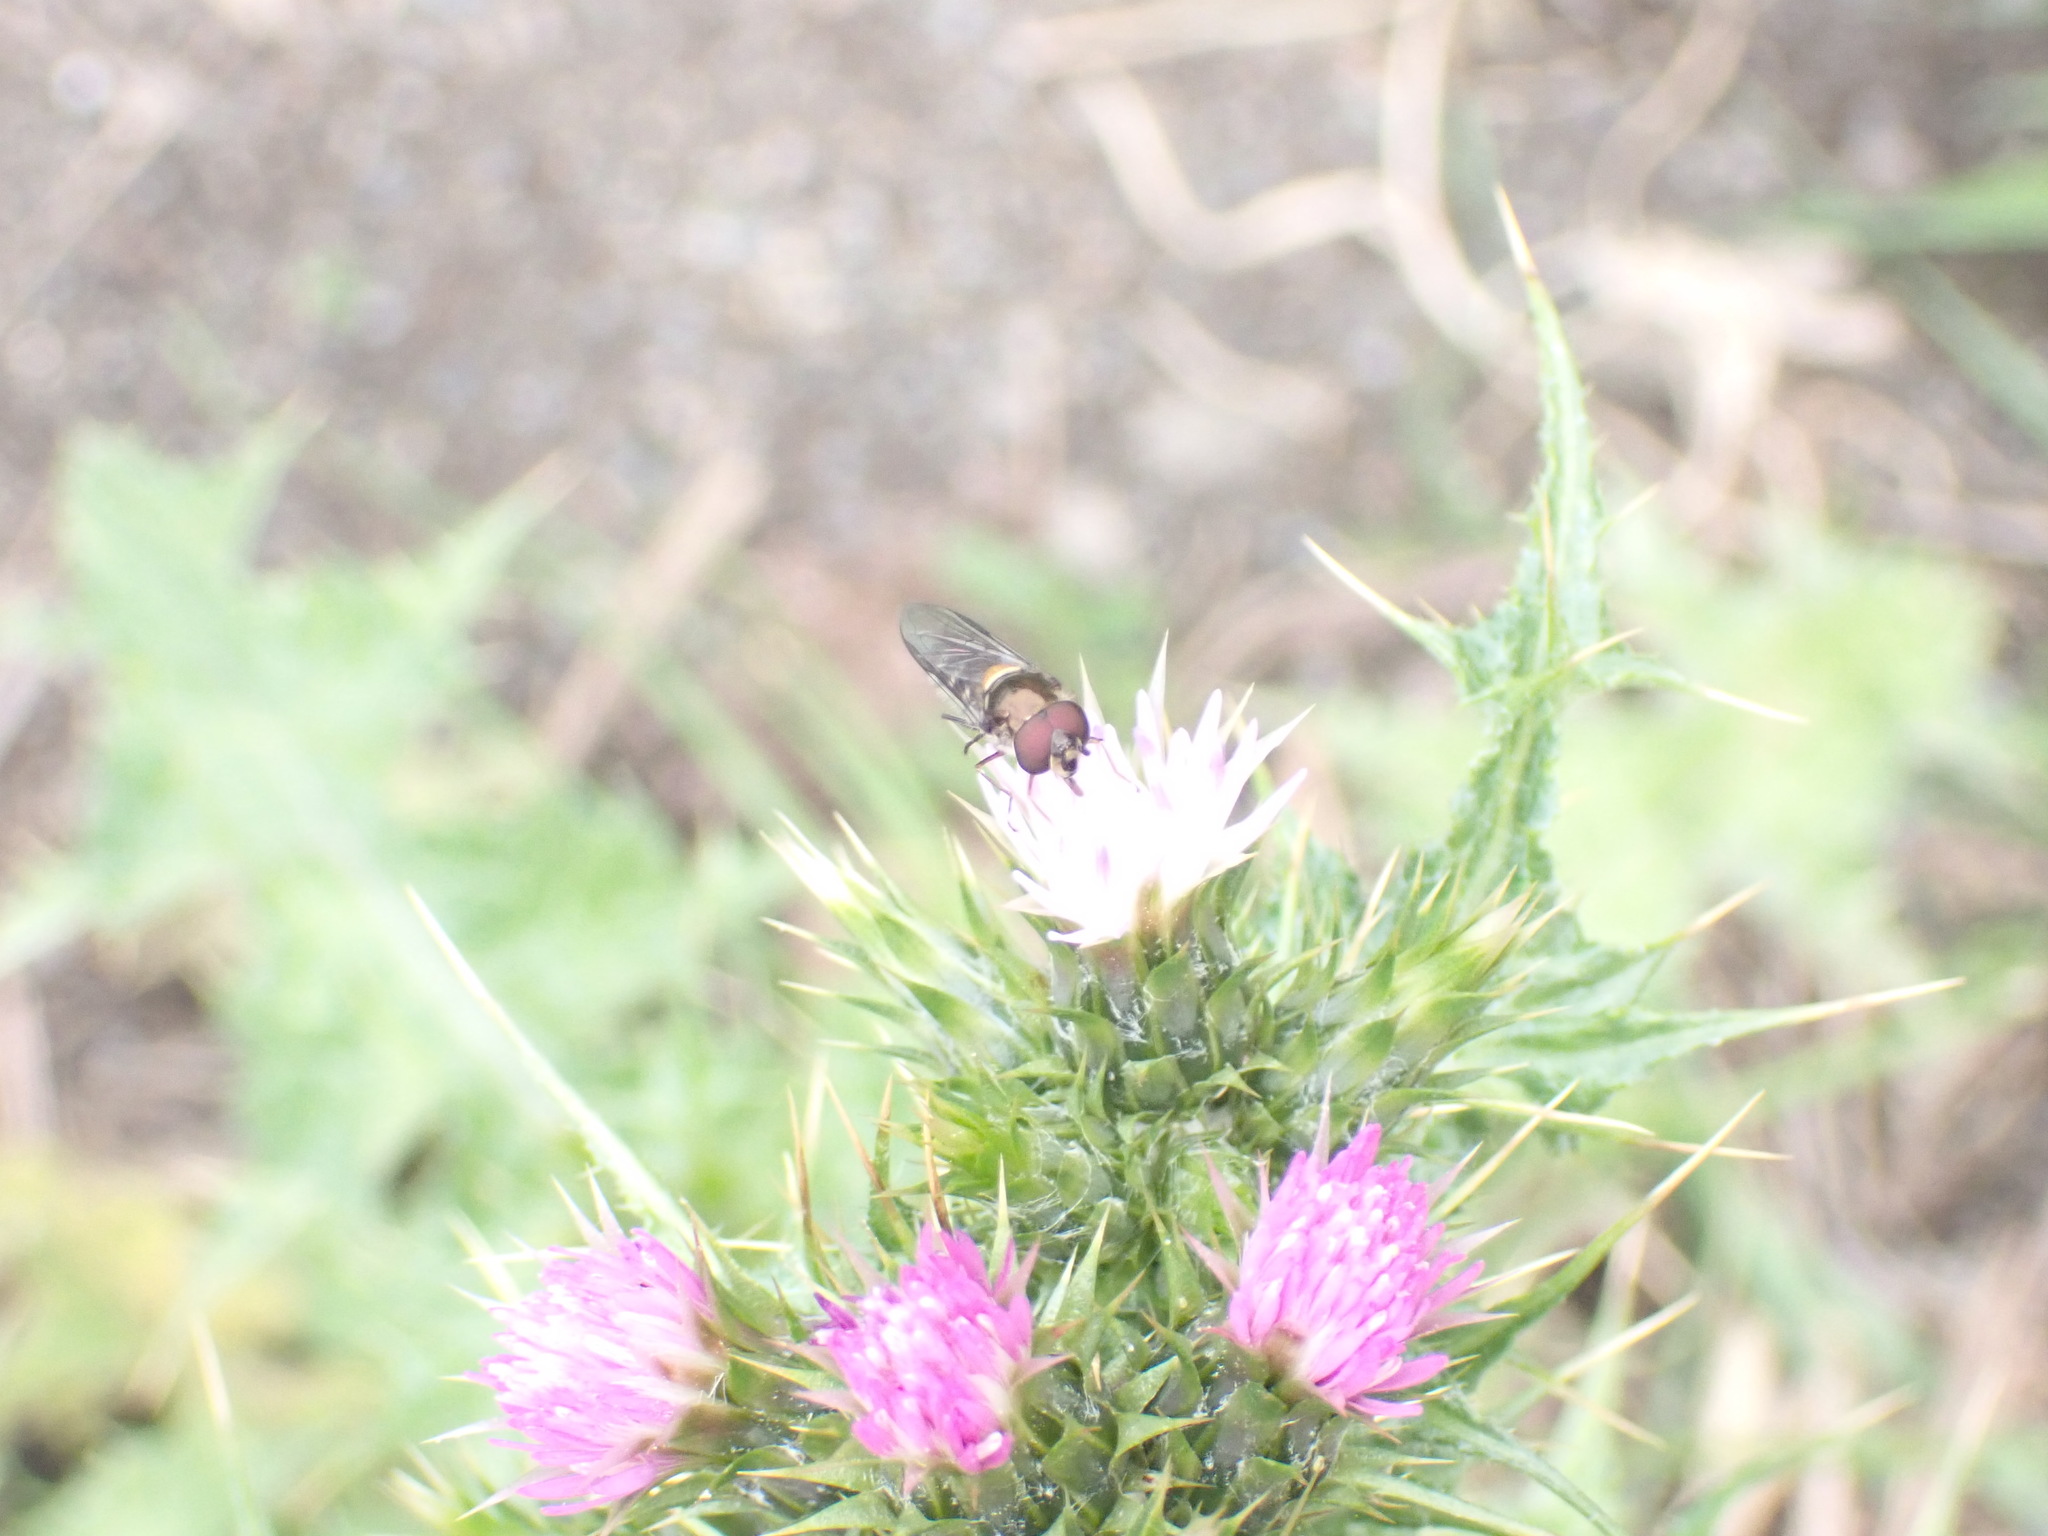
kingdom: Animalia
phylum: Arthropoda
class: Insecta
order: Diptera
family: Syrphidae
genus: Melangyna
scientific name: Melangyna novaezelandiae
